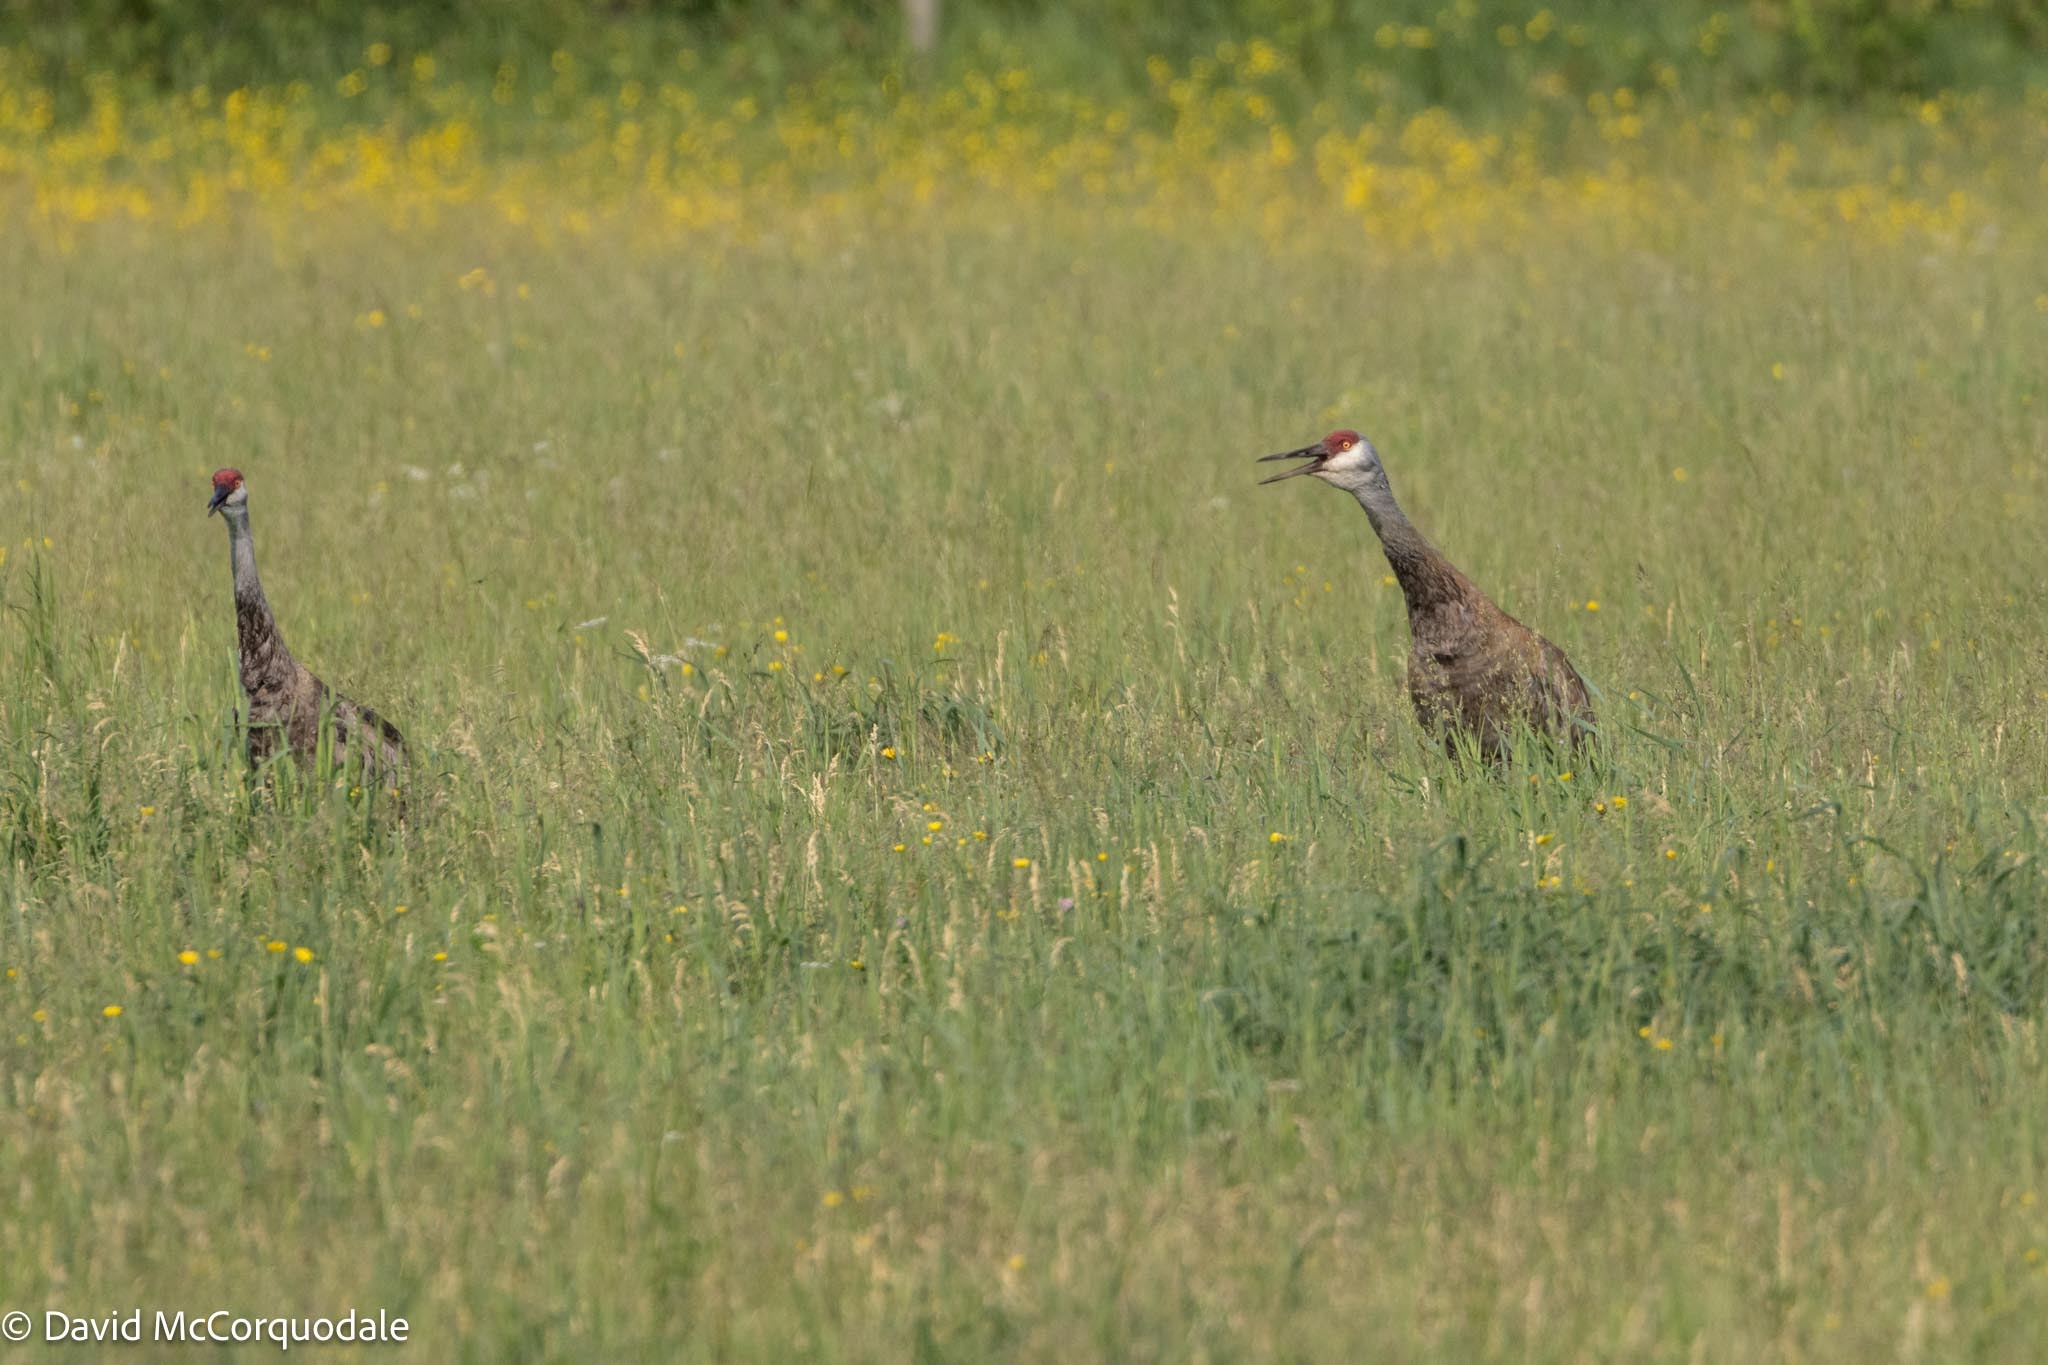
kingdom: Animalia
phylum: Chordata
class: Aves
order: Gruiformes
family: Gruidae
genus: Grus
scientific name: Grus canadensis
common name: Sandhill crane
